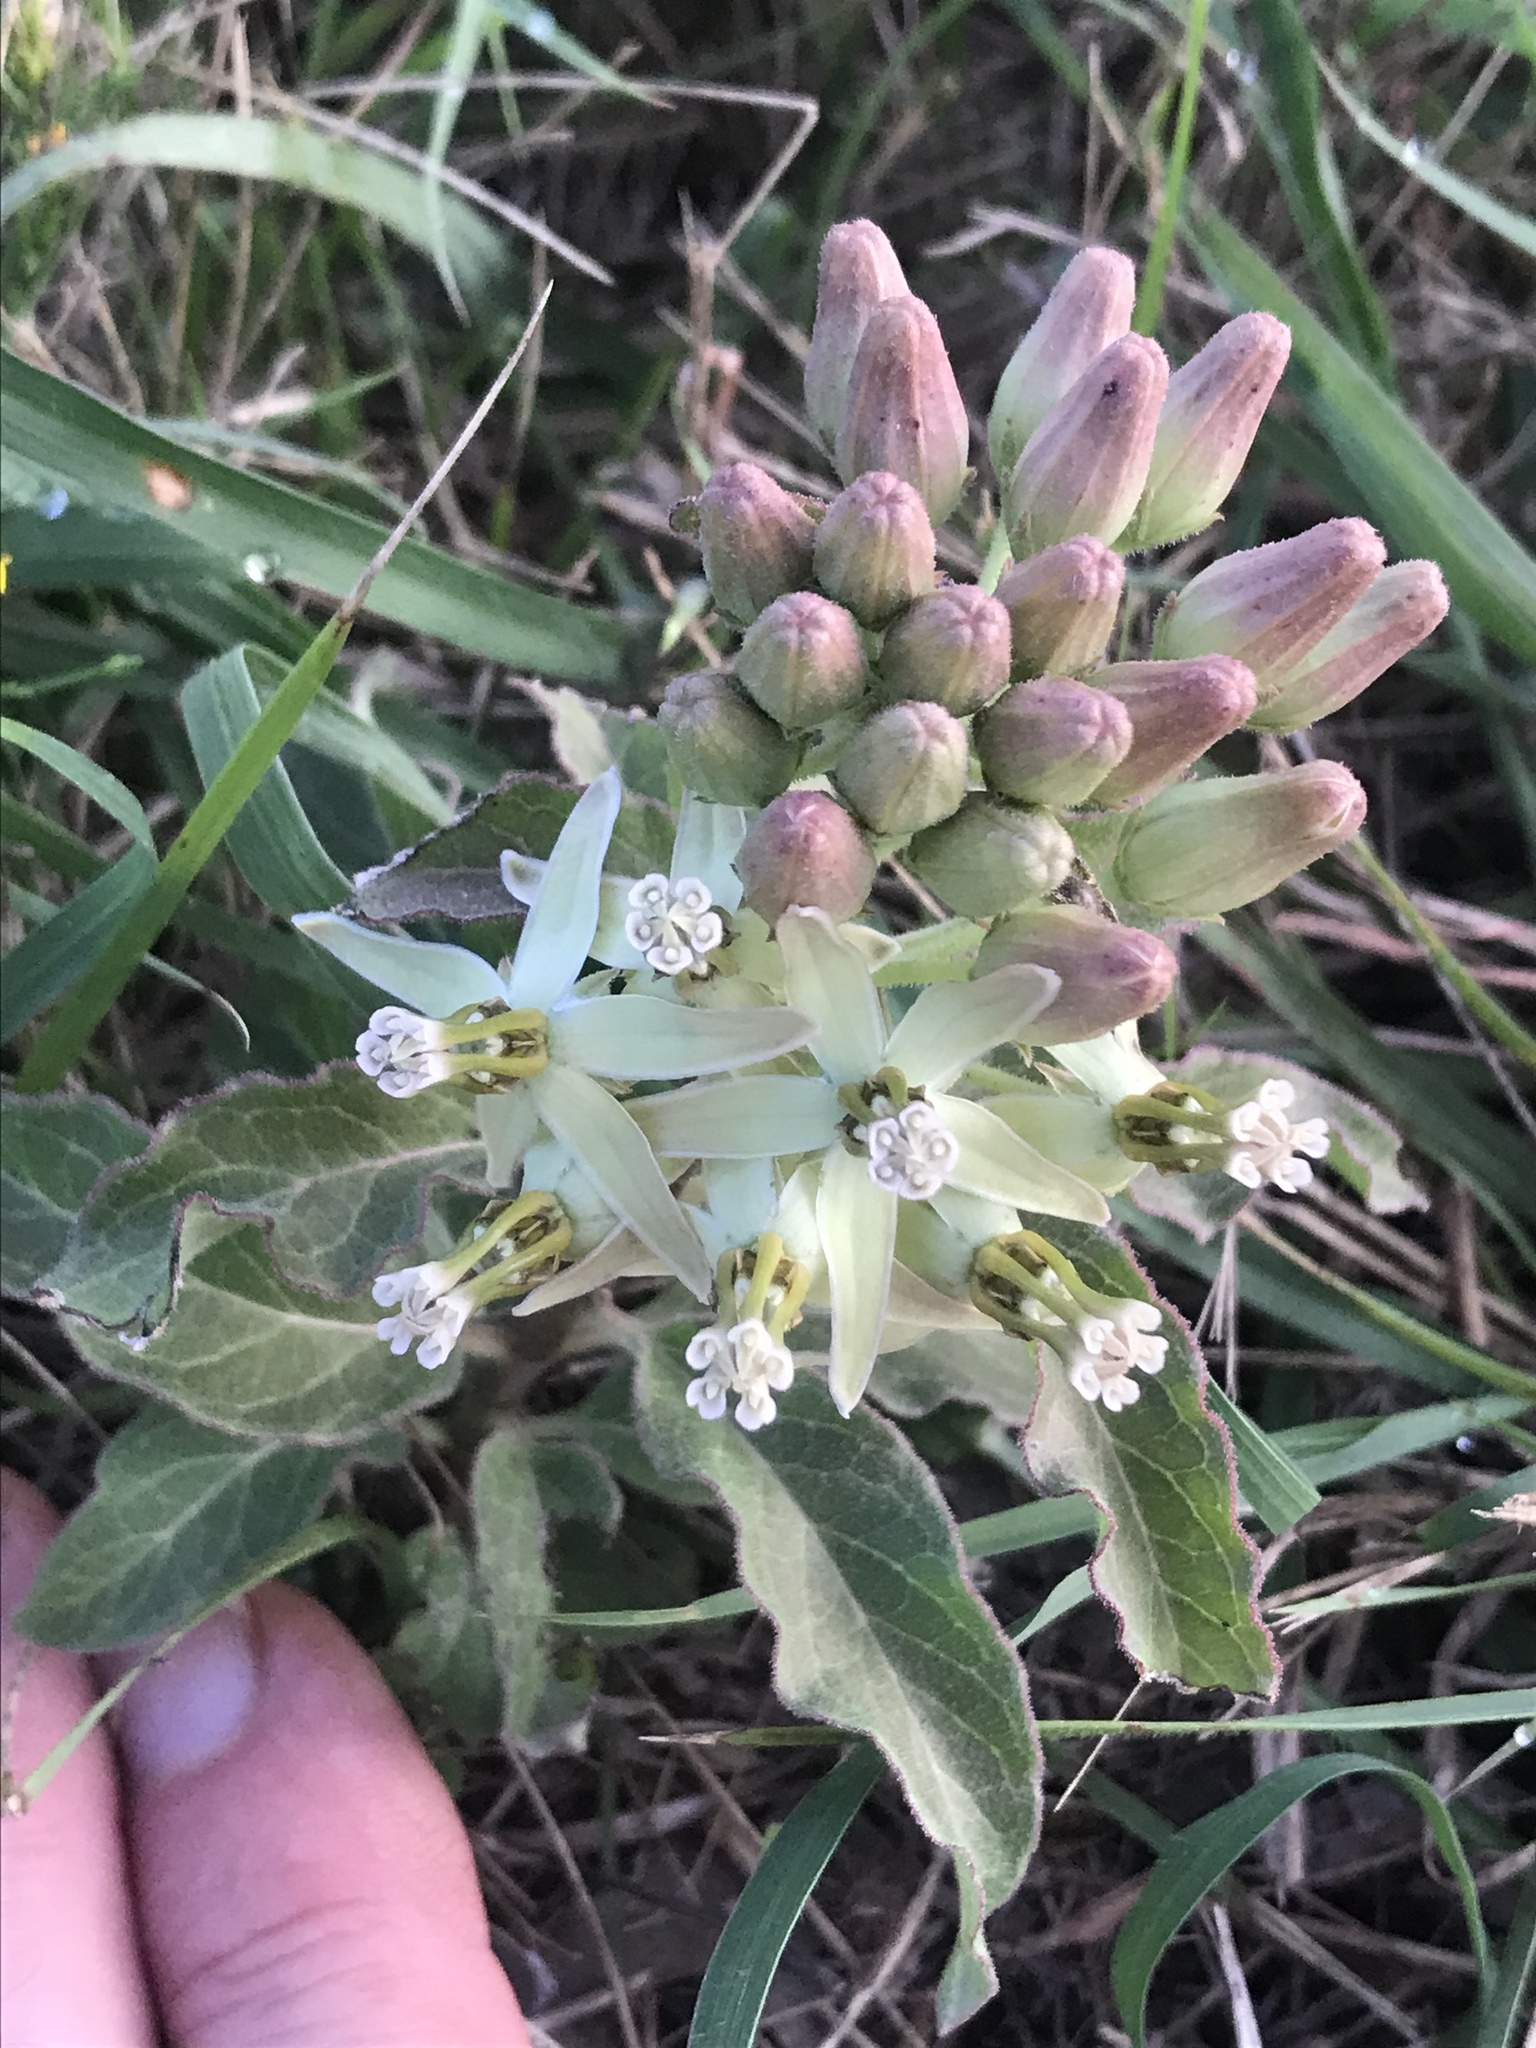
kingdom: Plantae
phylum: Tracheophyta
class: Magnoliopsida
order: Gentianales
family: Apocynaceae
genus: Asclepias
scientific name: Asclepias oenotheroides
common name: Zizotes milkweed
